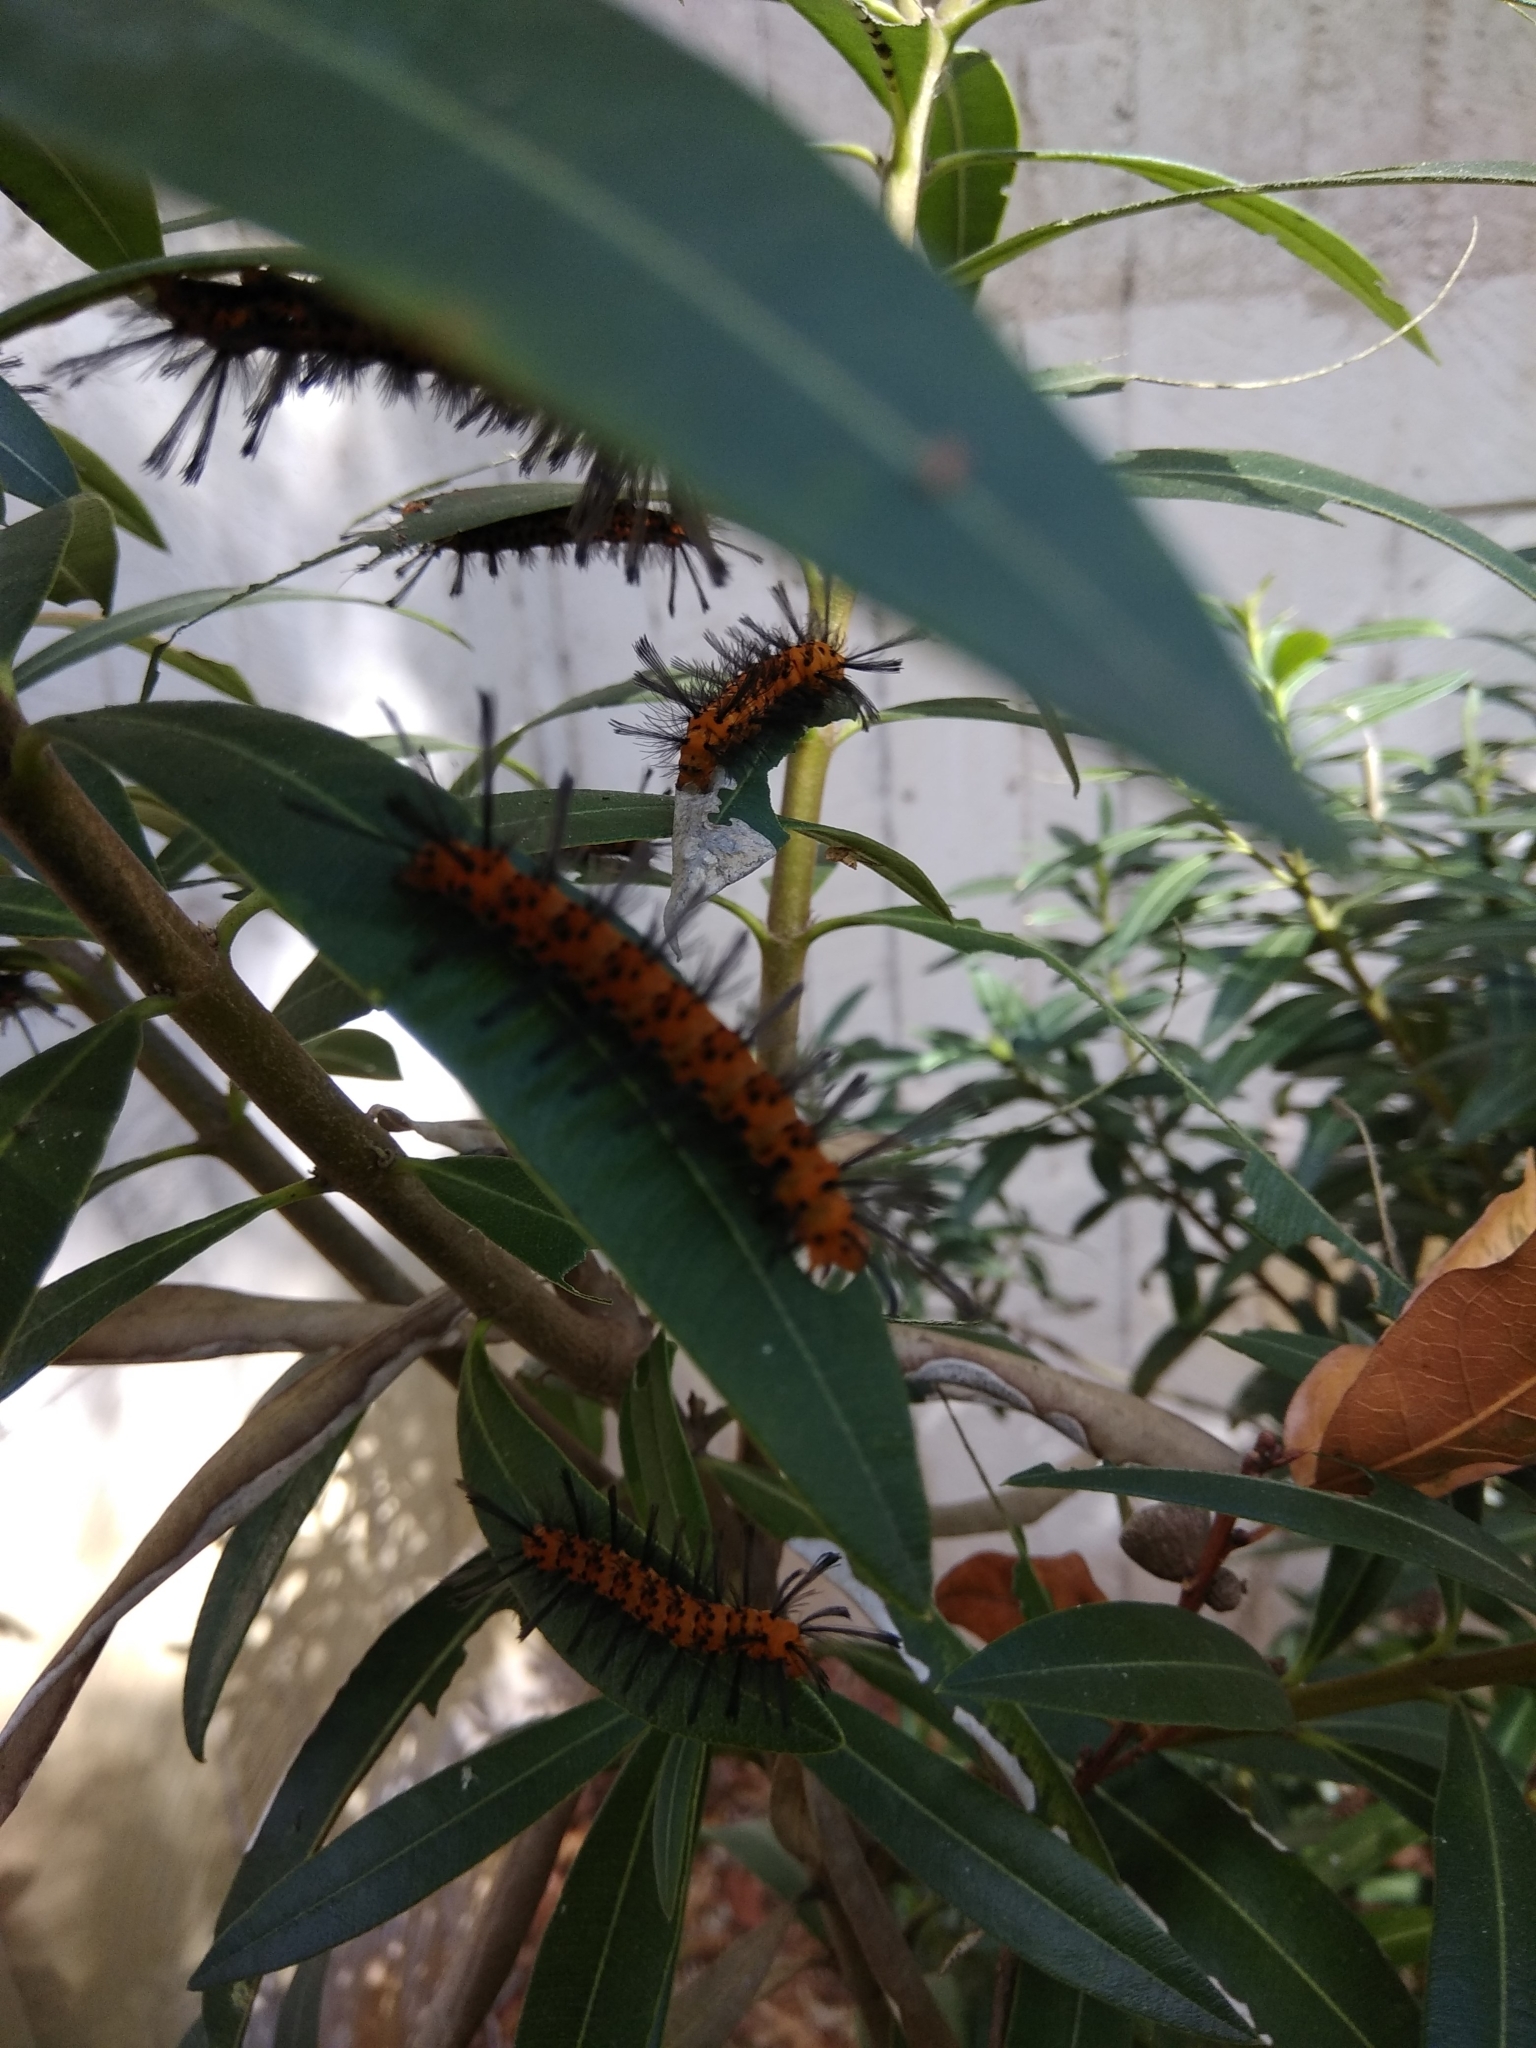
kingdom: Animalia
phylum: Arthropoda
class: Insecta
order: Lepidoptera
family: Erebidae
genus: Syntomeida
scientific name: Syntomeida epilais
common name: Polka-dot wasp moth
